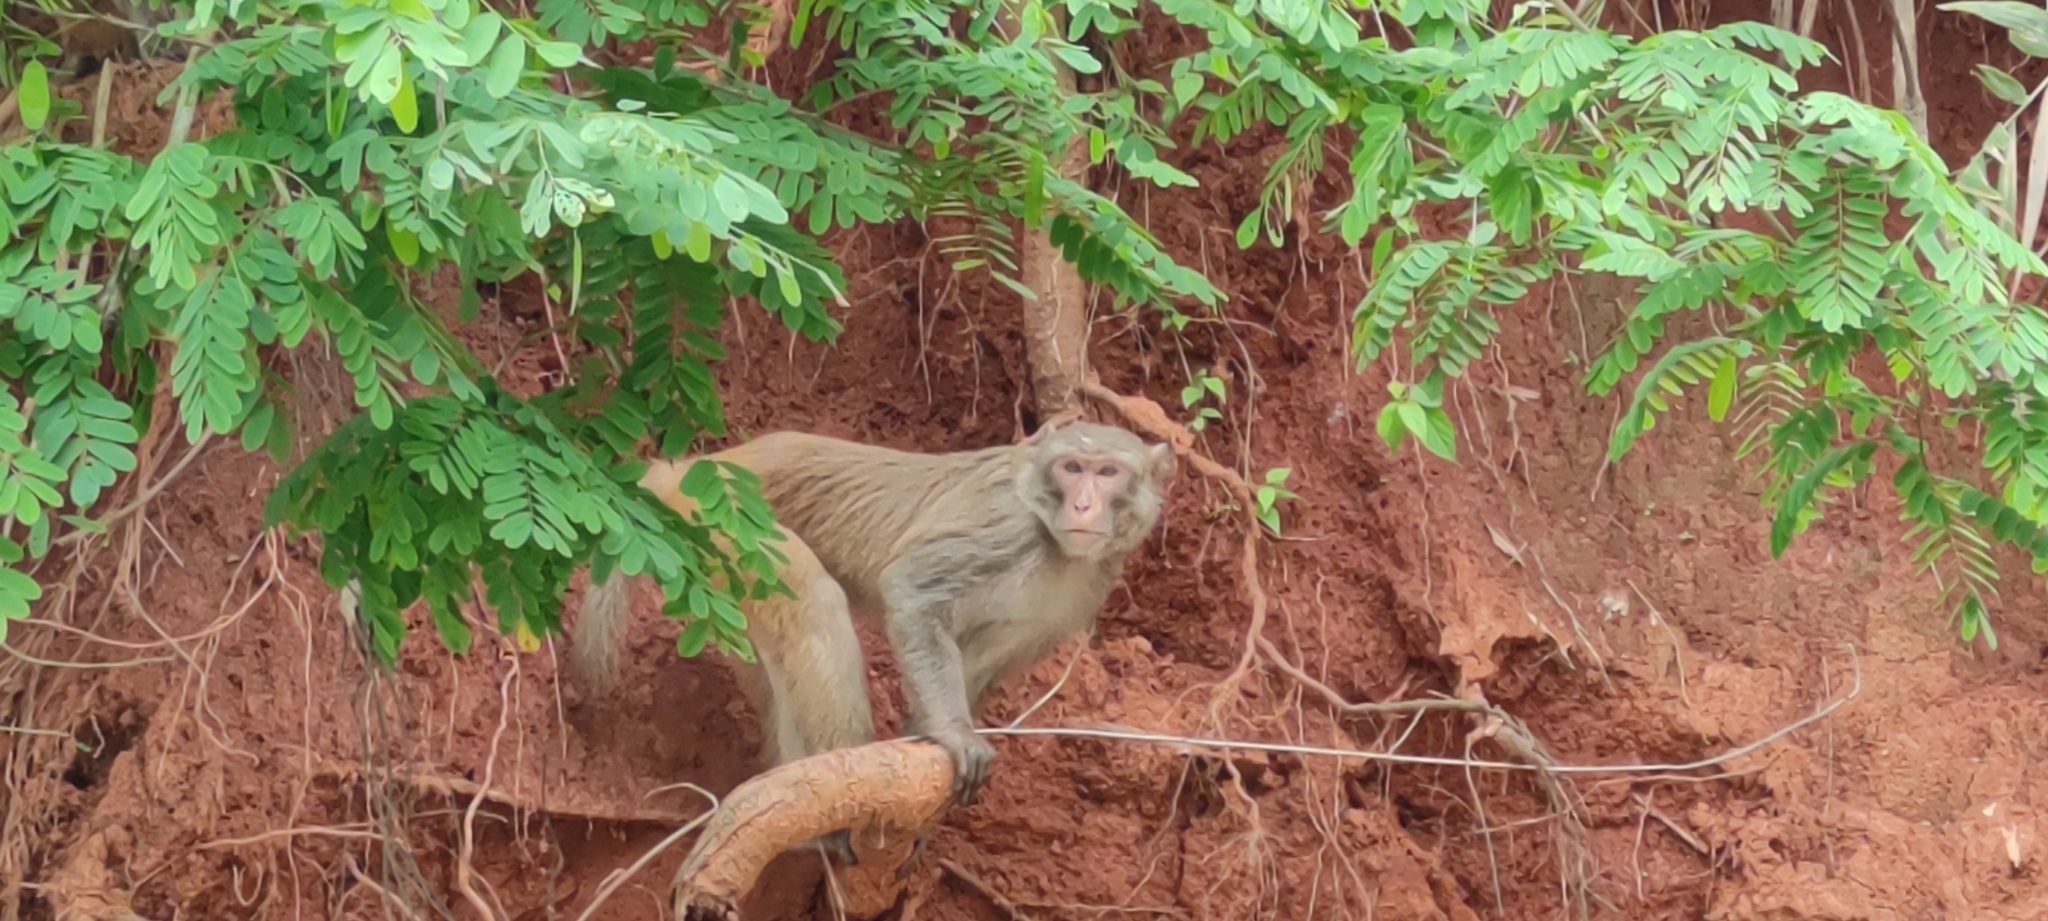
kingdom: Animalia
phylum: Chordata
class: Mammalia
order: Primates
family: Cercopithecidae
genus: Macaca
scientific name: Macaca mulatta
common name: Rhesus monkey
